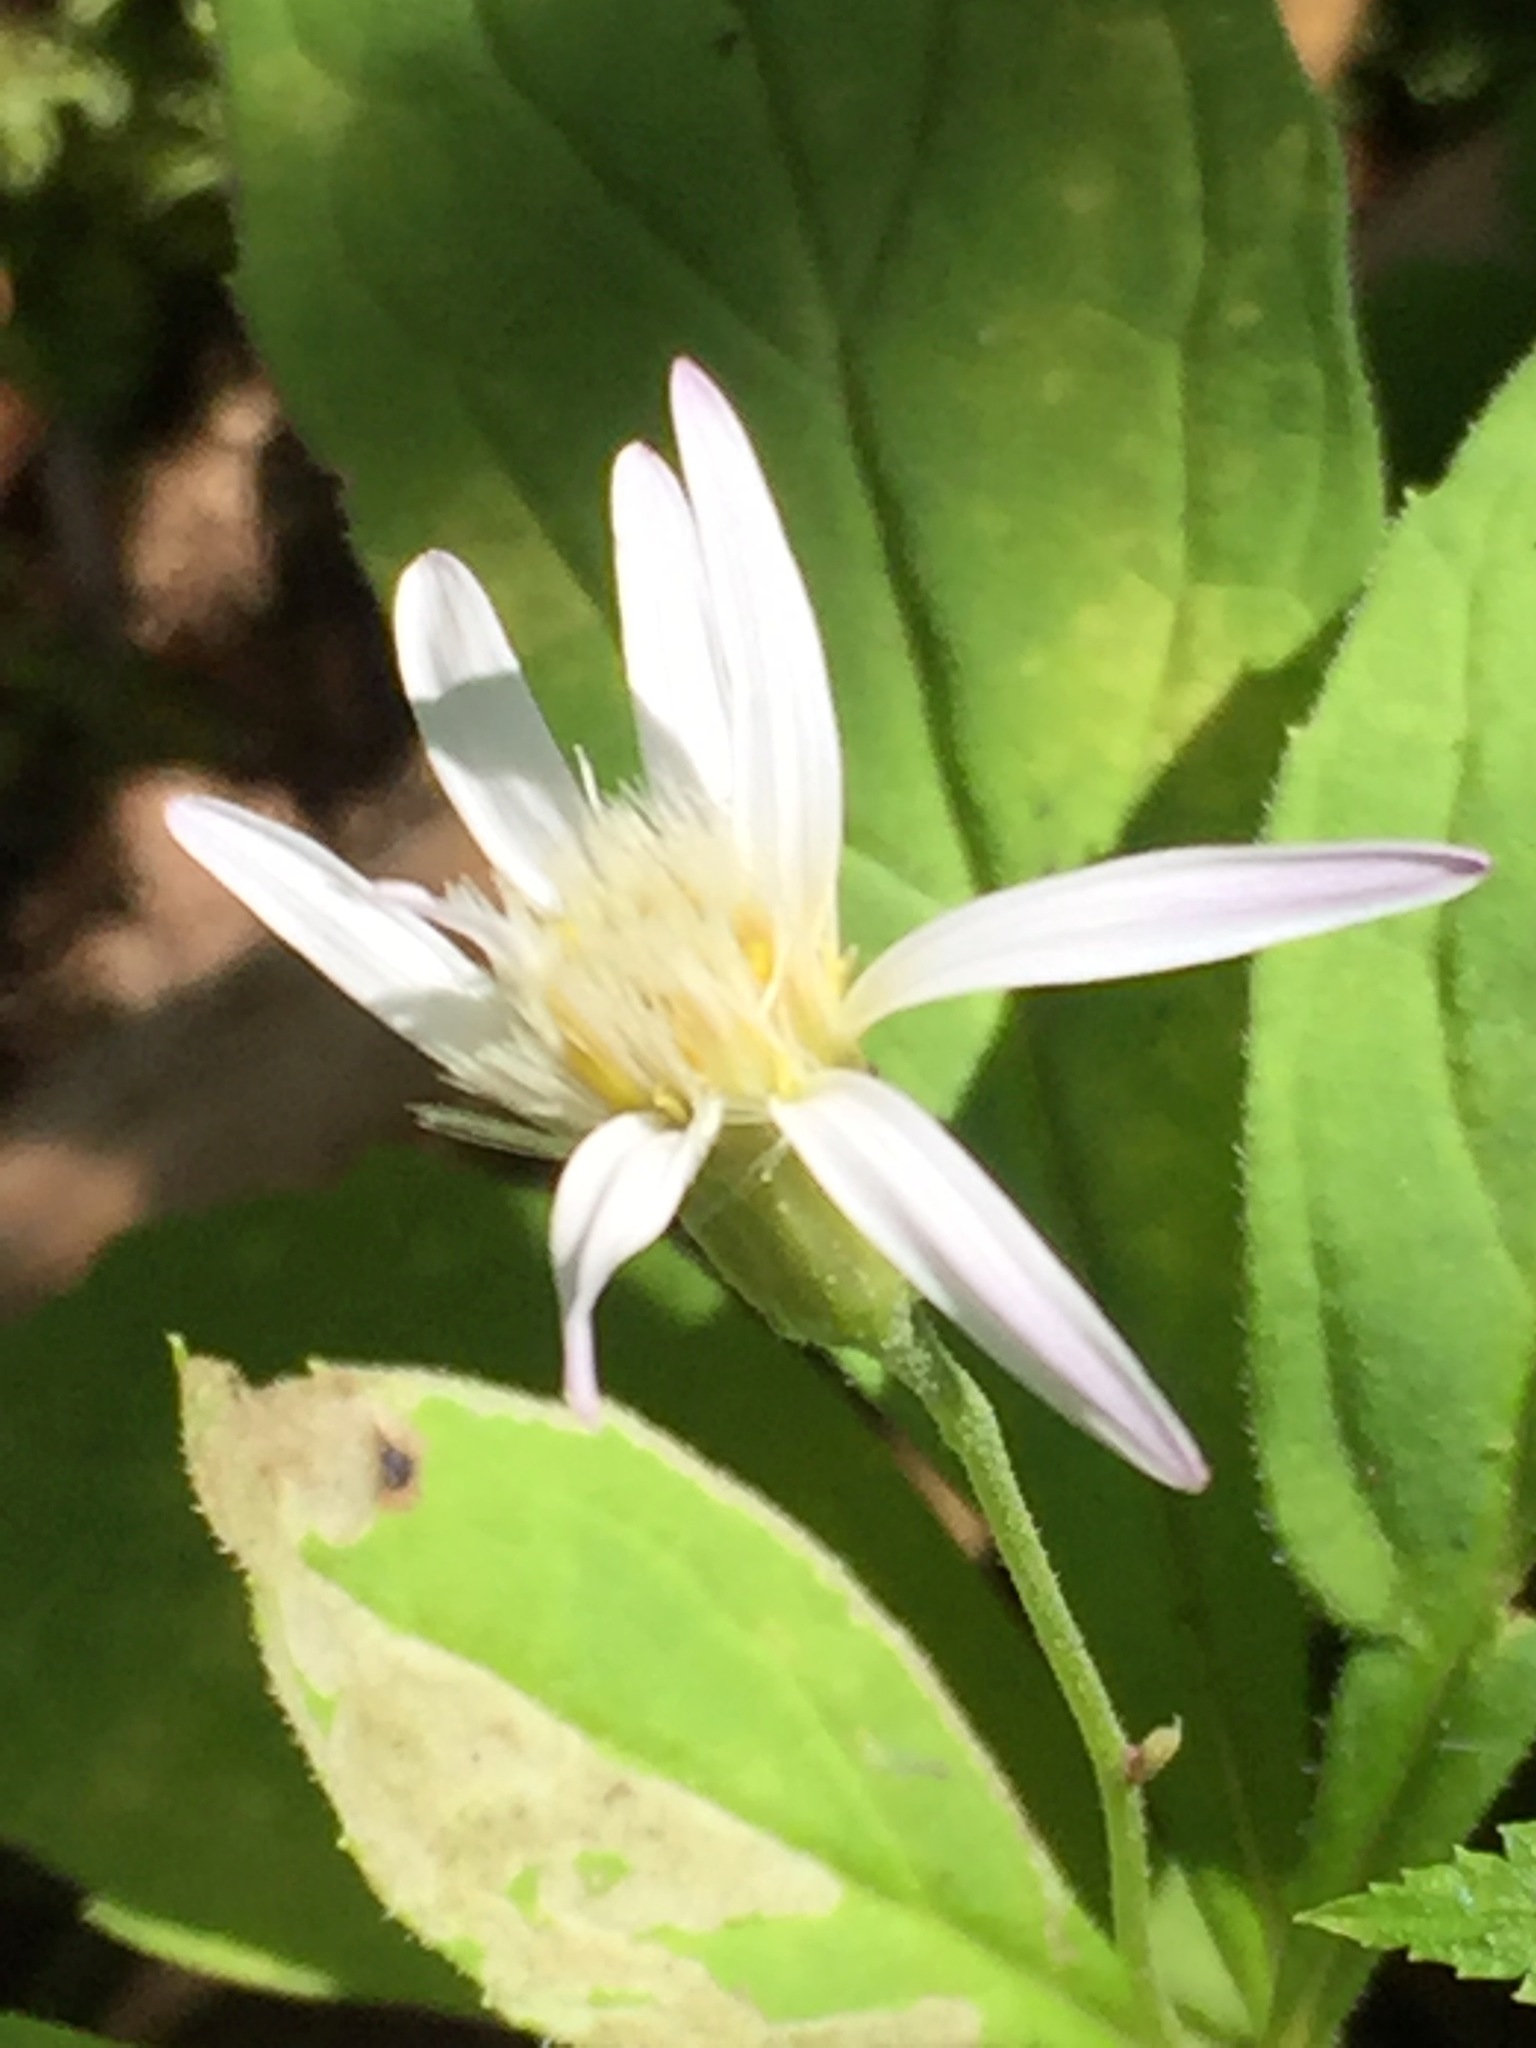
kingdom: Plantae
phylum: Tracheophyta
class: Magnoliopsida
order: Asterales
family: Asteraceae
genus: Oclemena
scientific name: Oclemena acuminata
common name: Mountain aster
